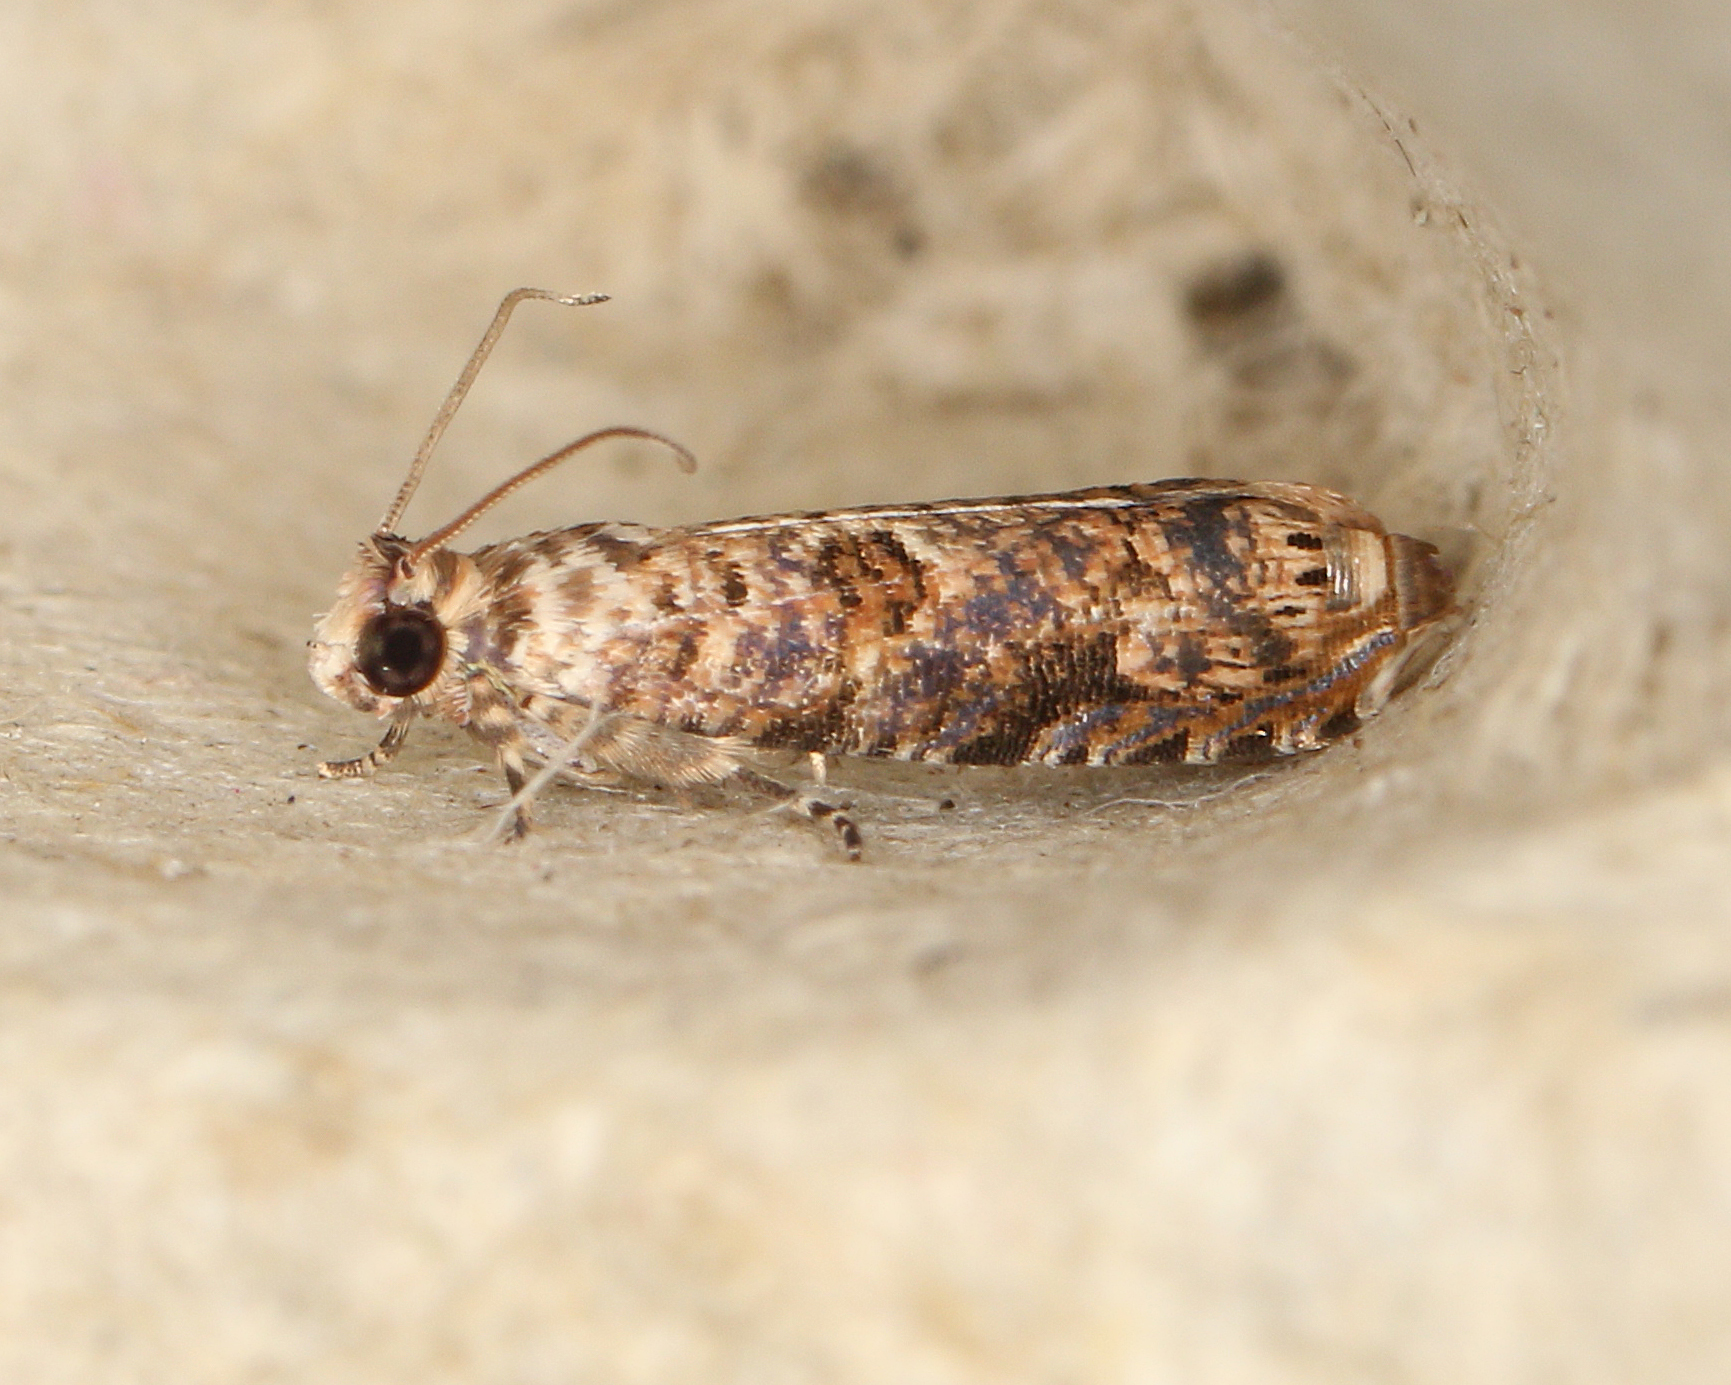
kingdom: Animalia
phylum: Arthropoda
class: Insecta
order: Lepidoptera
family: Tortricidae
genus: Episimus
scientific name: Episimus argutana
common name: Sumac leaftier moth
